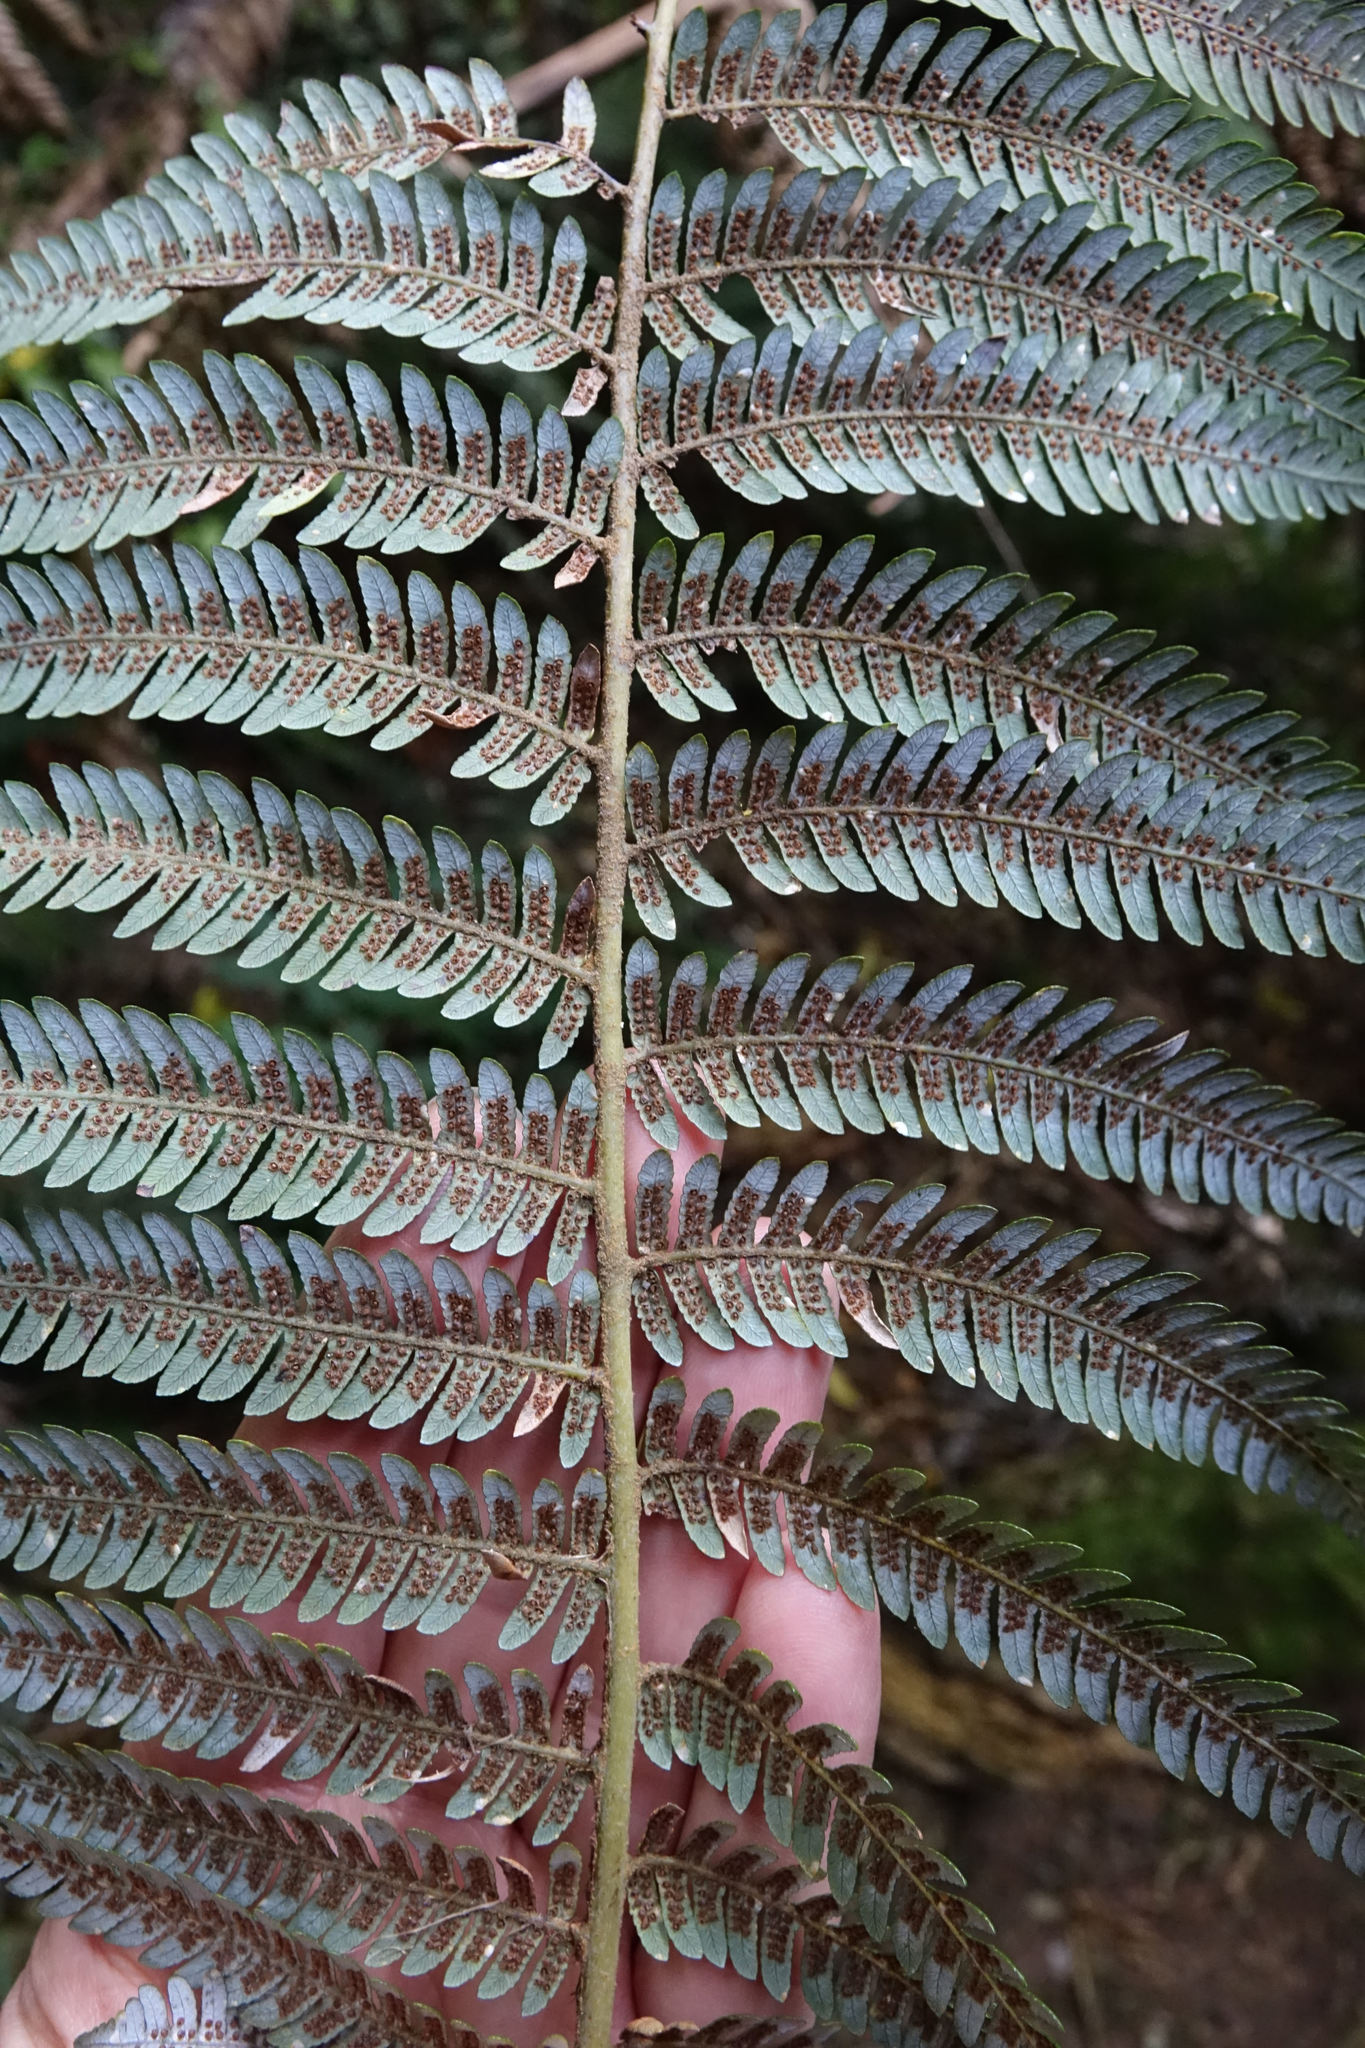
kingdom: Plantae
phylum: Tracheophyta
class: Polypodiopsida
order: Cyatheales
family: Cyatheaceae
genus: Alsophila
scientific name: Alsophila dealbata
